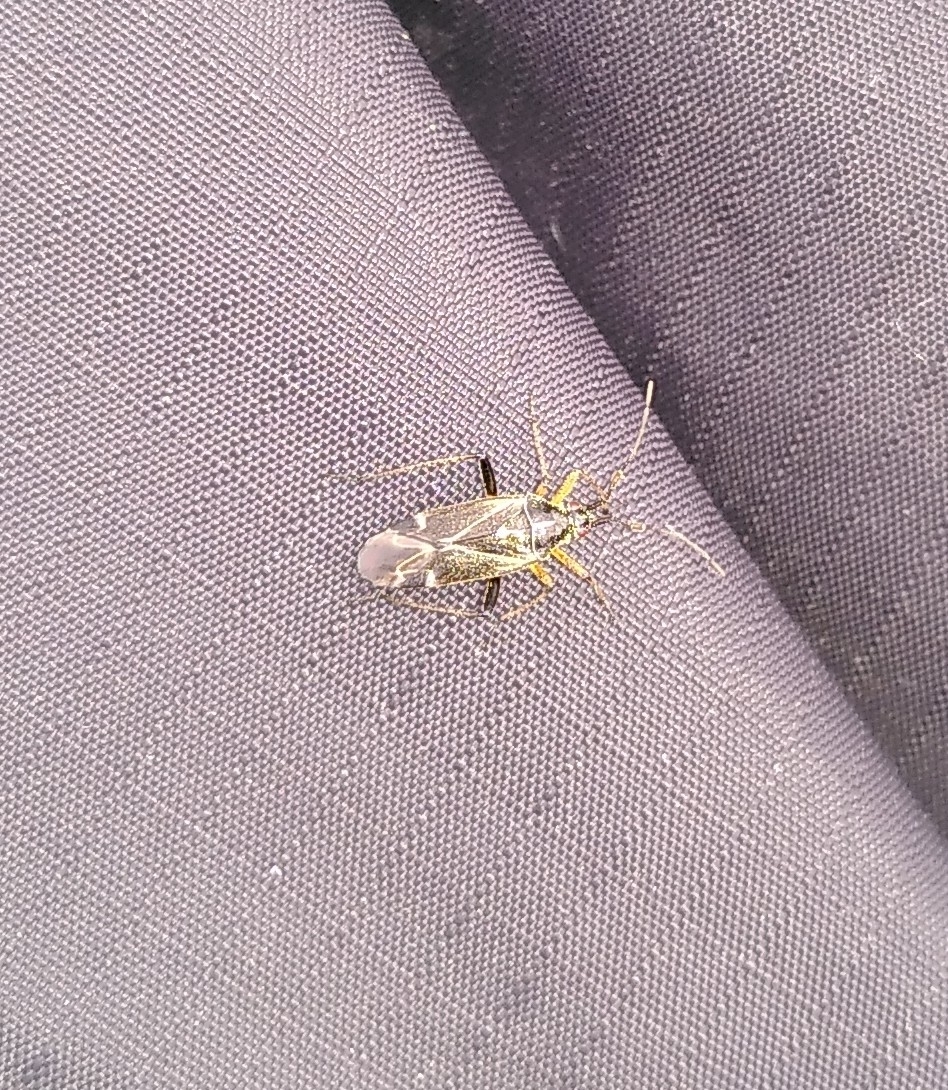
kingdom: Animalia
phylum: Arthropoda
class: Insecta
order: Hemiptera
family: Miridae
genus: Harpocera
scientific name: Harpocera thoracica
